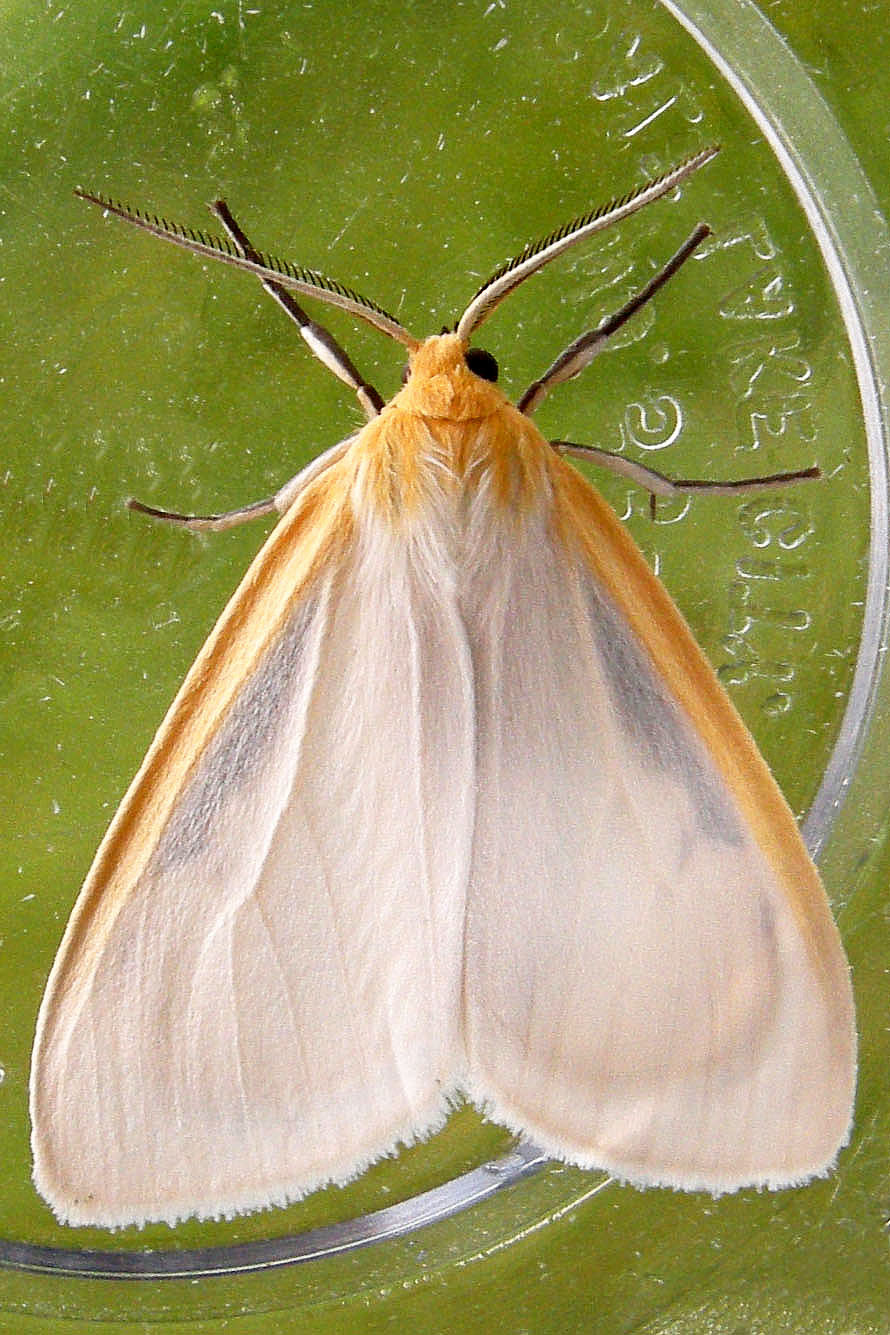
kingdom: Animalia
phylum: Arthropoda
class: Insecta
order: Lepidoptera
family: Erebidae
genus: Cycnia
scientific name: Cycnia tenera
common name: Delicate cycnia moth
